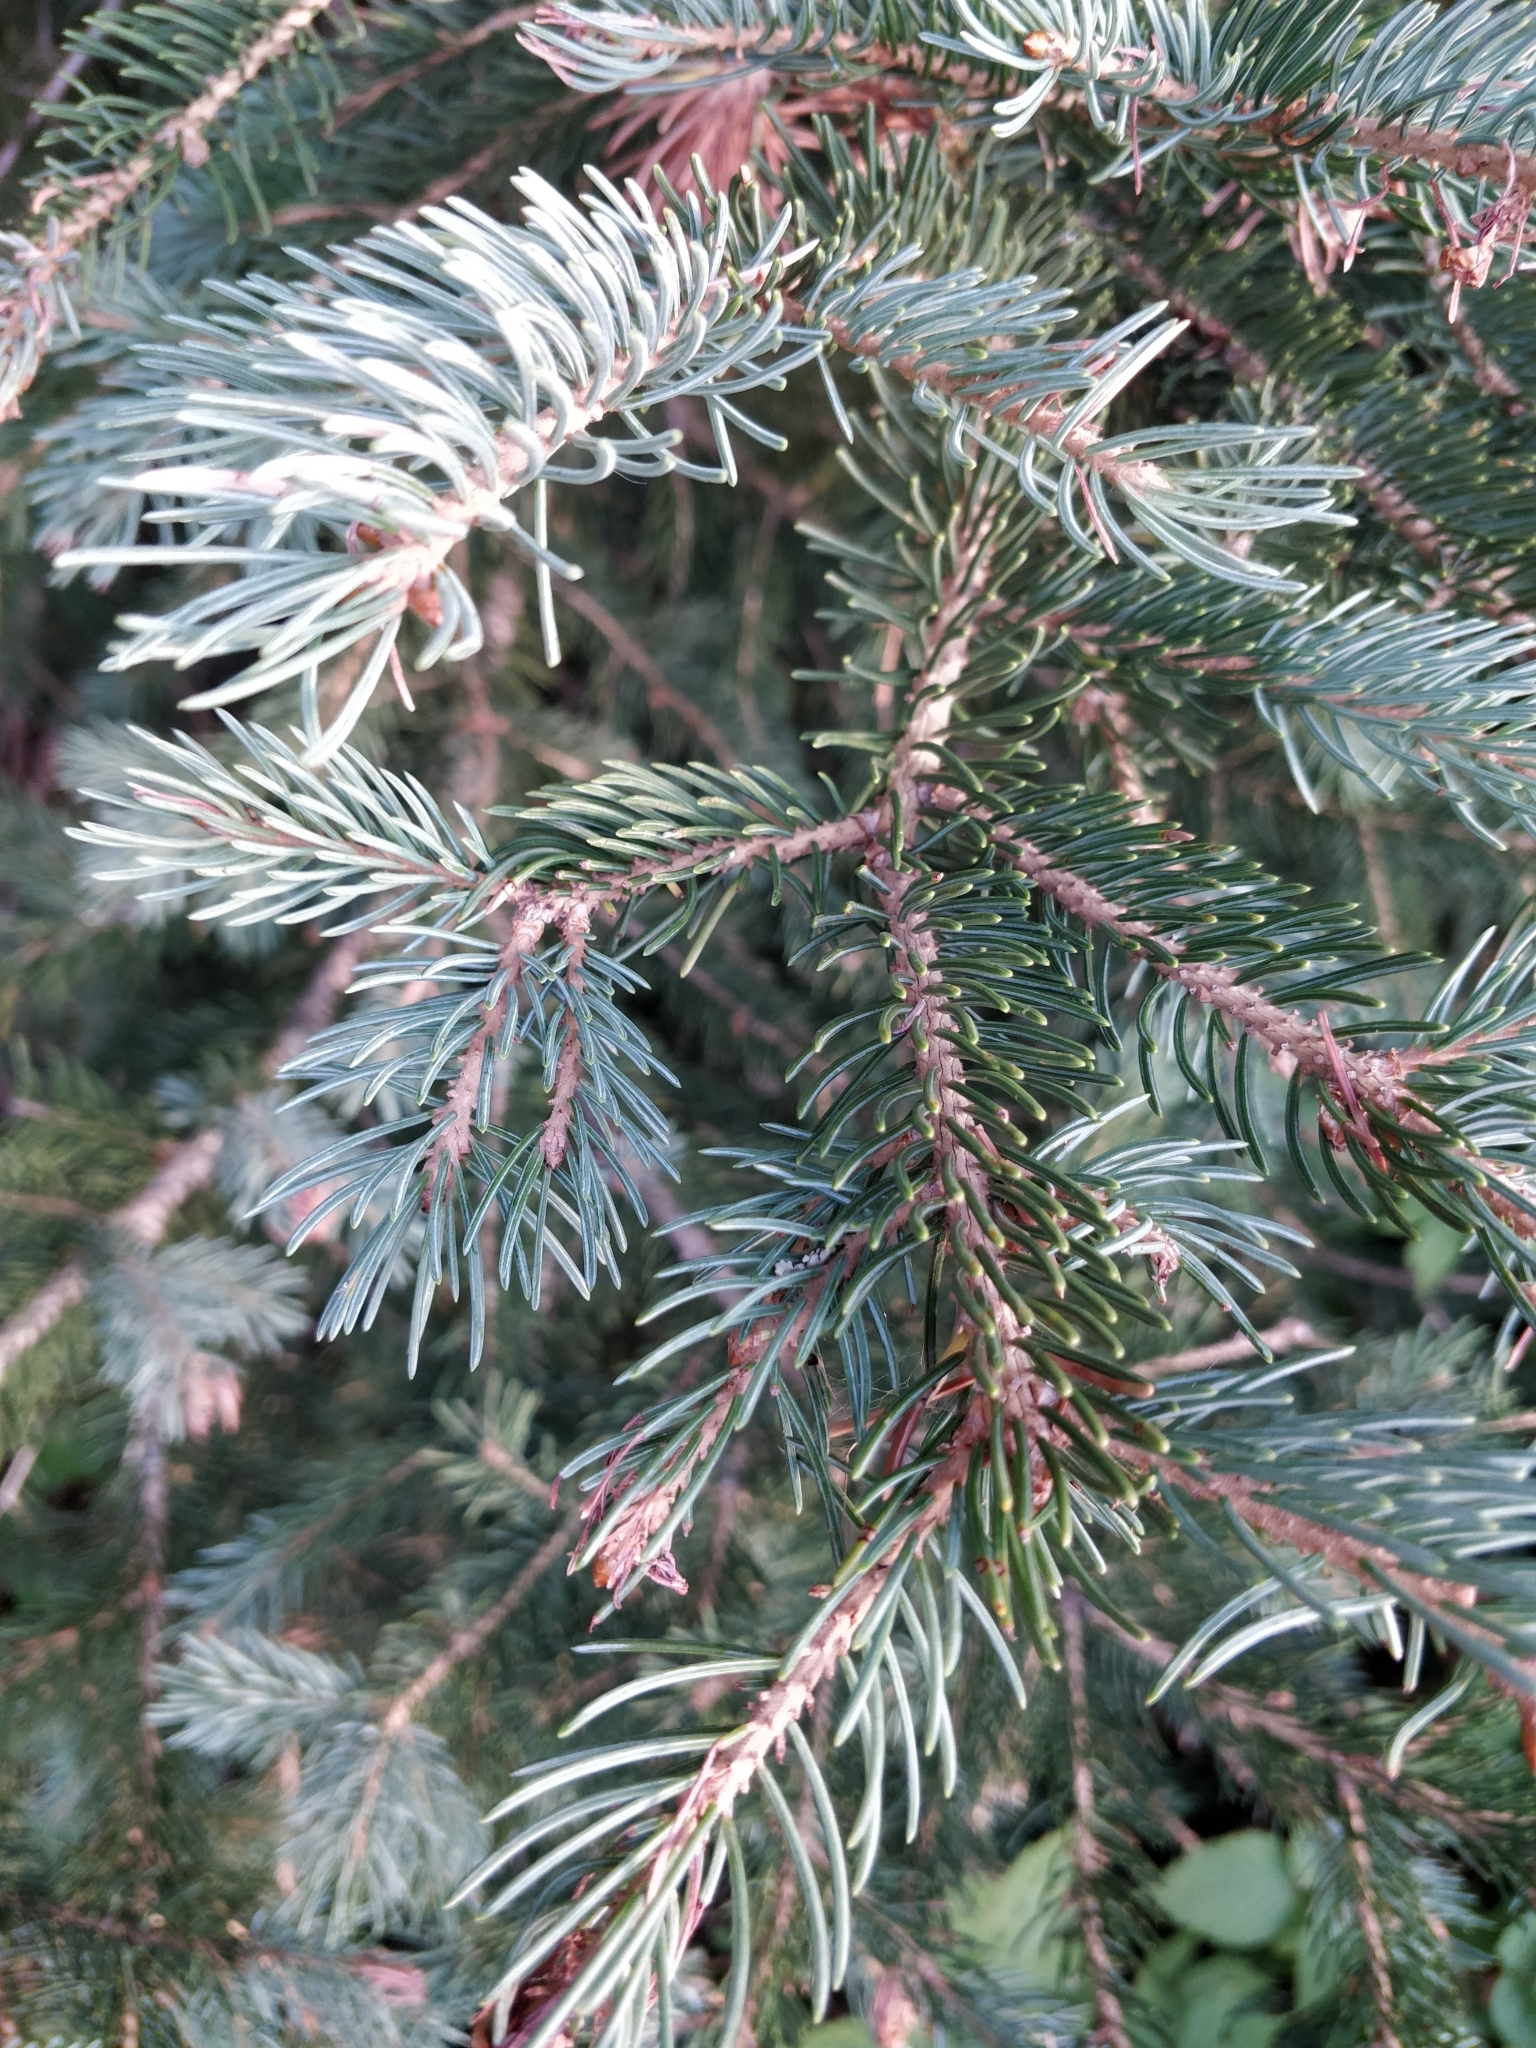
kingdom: Plantae
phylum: Tracheophyta
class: Pinopsida
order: Pinales
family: Pinaceae
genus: Picea
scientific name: Picea engelmannii
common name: Engelmann spruce
